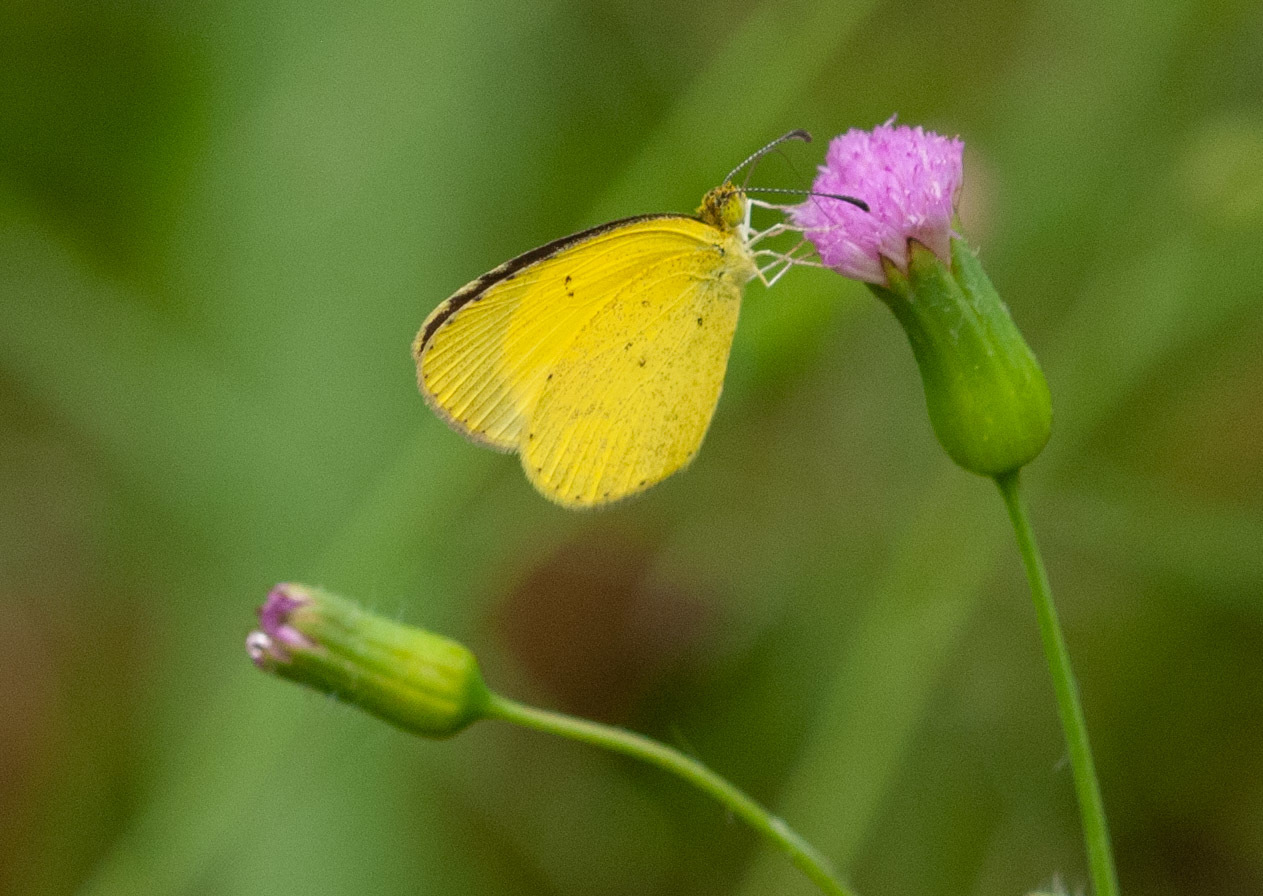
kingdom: Animalia
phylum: Arthropoda
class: Insecta
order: Lepidoptera
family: Pieridae
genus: Eurema
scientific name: Eurema brigitta
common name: Small grass yellow
